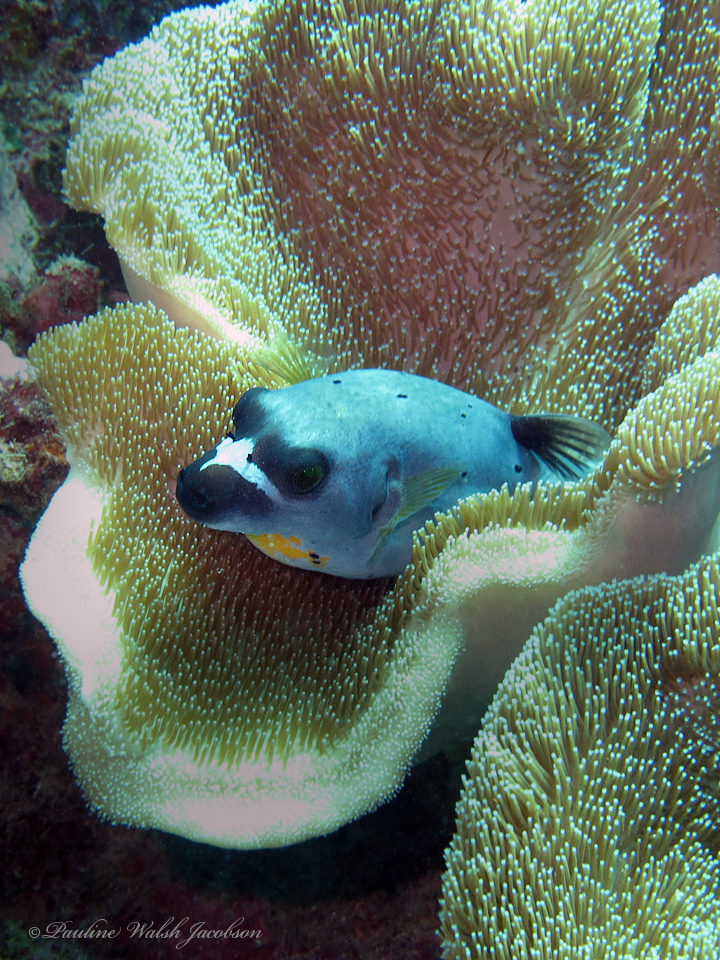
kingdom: Animalia
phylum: Chordata
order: Tetraodontiformes
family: Tetraodontidae
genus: Arothron
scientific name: Arothron nigropunctatus
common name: Black spotted blow fish
